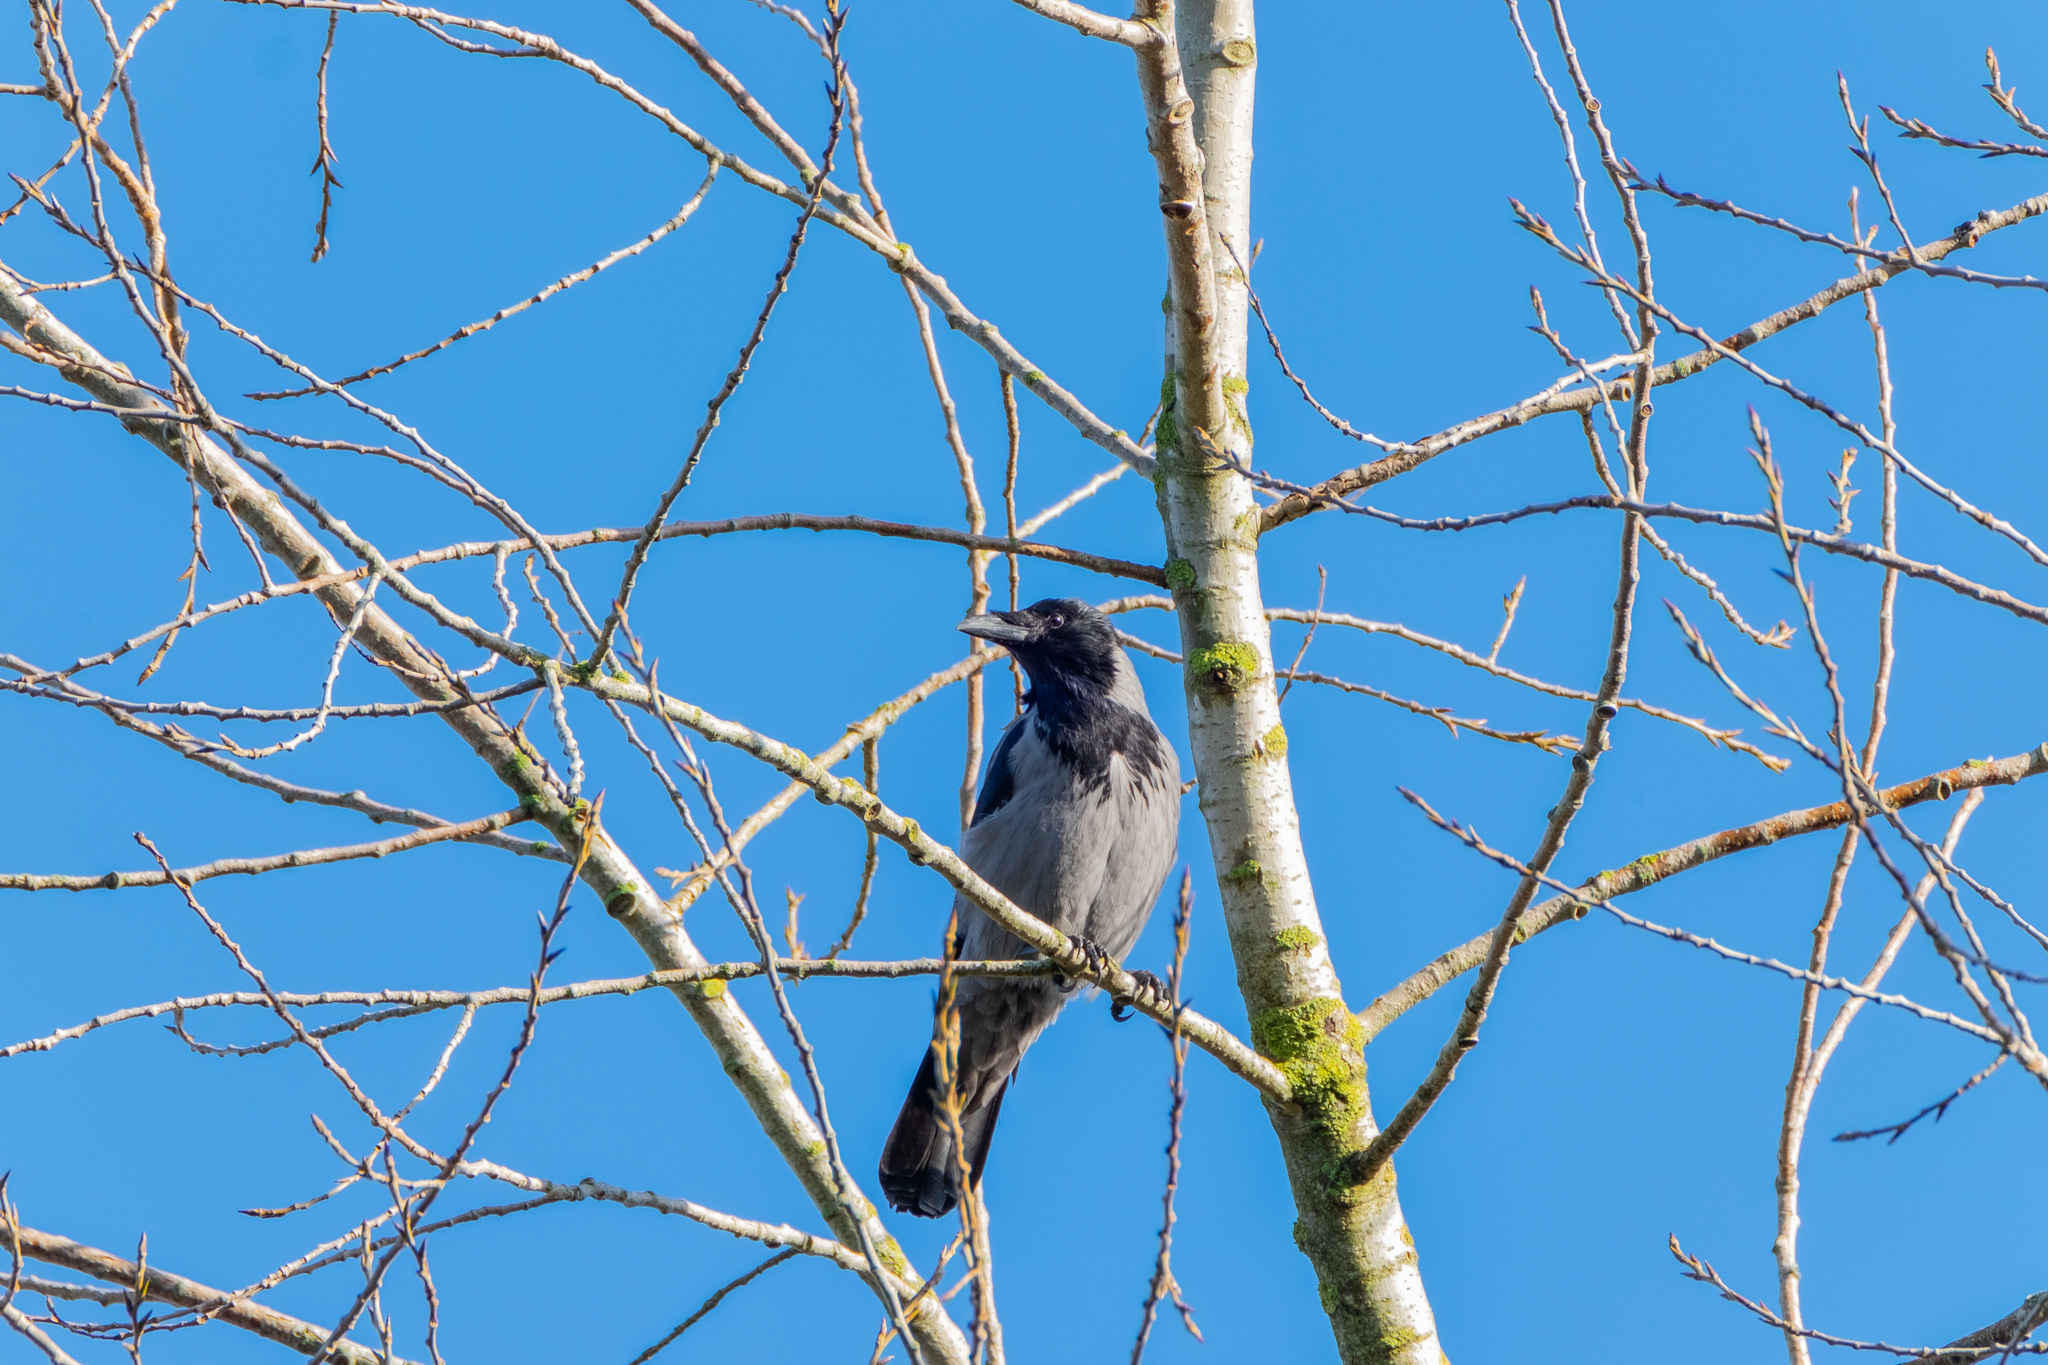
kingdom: Animalia
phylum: Chordata
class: Aves
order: Passeriformes
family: Corvidae
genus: Corvus
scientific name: Corvus cornix
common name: Hooded crow
